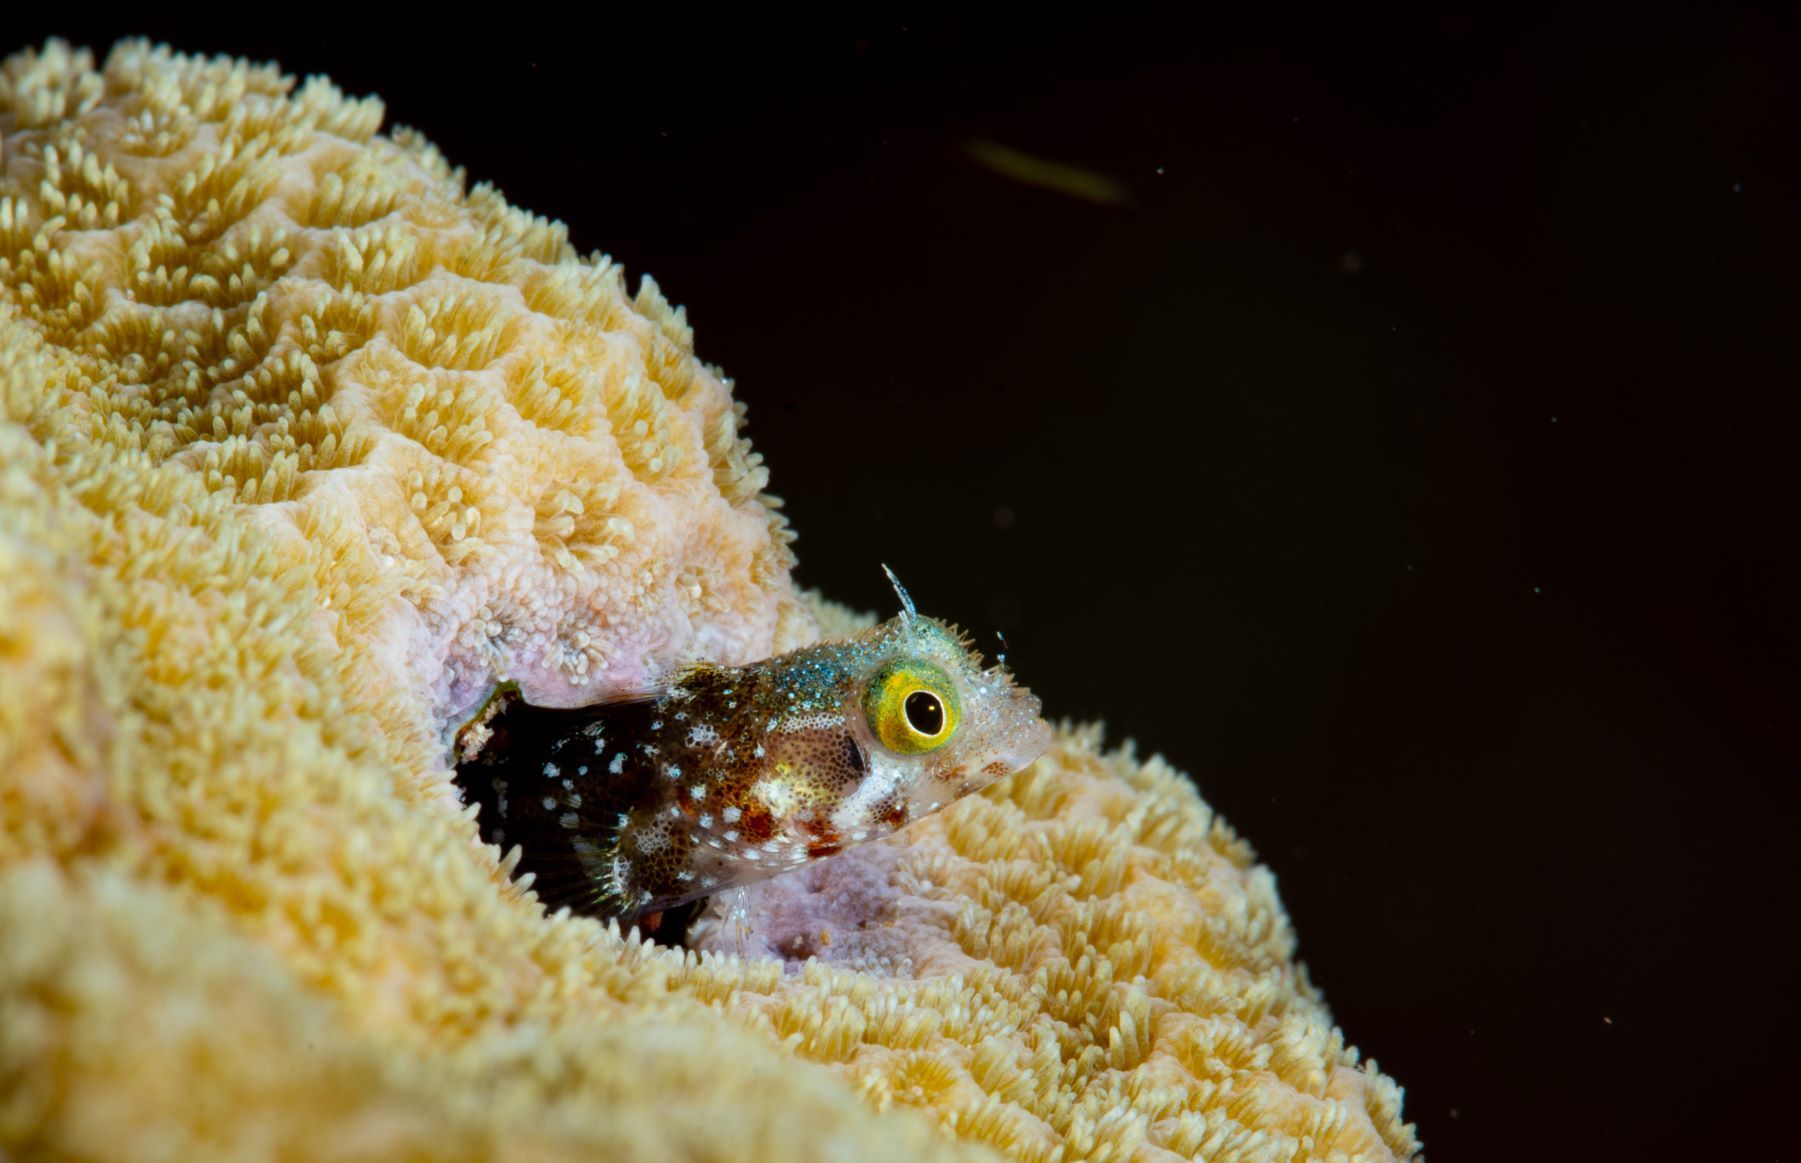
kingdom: Animalia
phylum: Chordata
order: Perciformes
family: Chaenopsidae
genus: Acanthemblemaria
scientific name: Acanthemblemaria spinosa
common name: Spinyhead blenny
